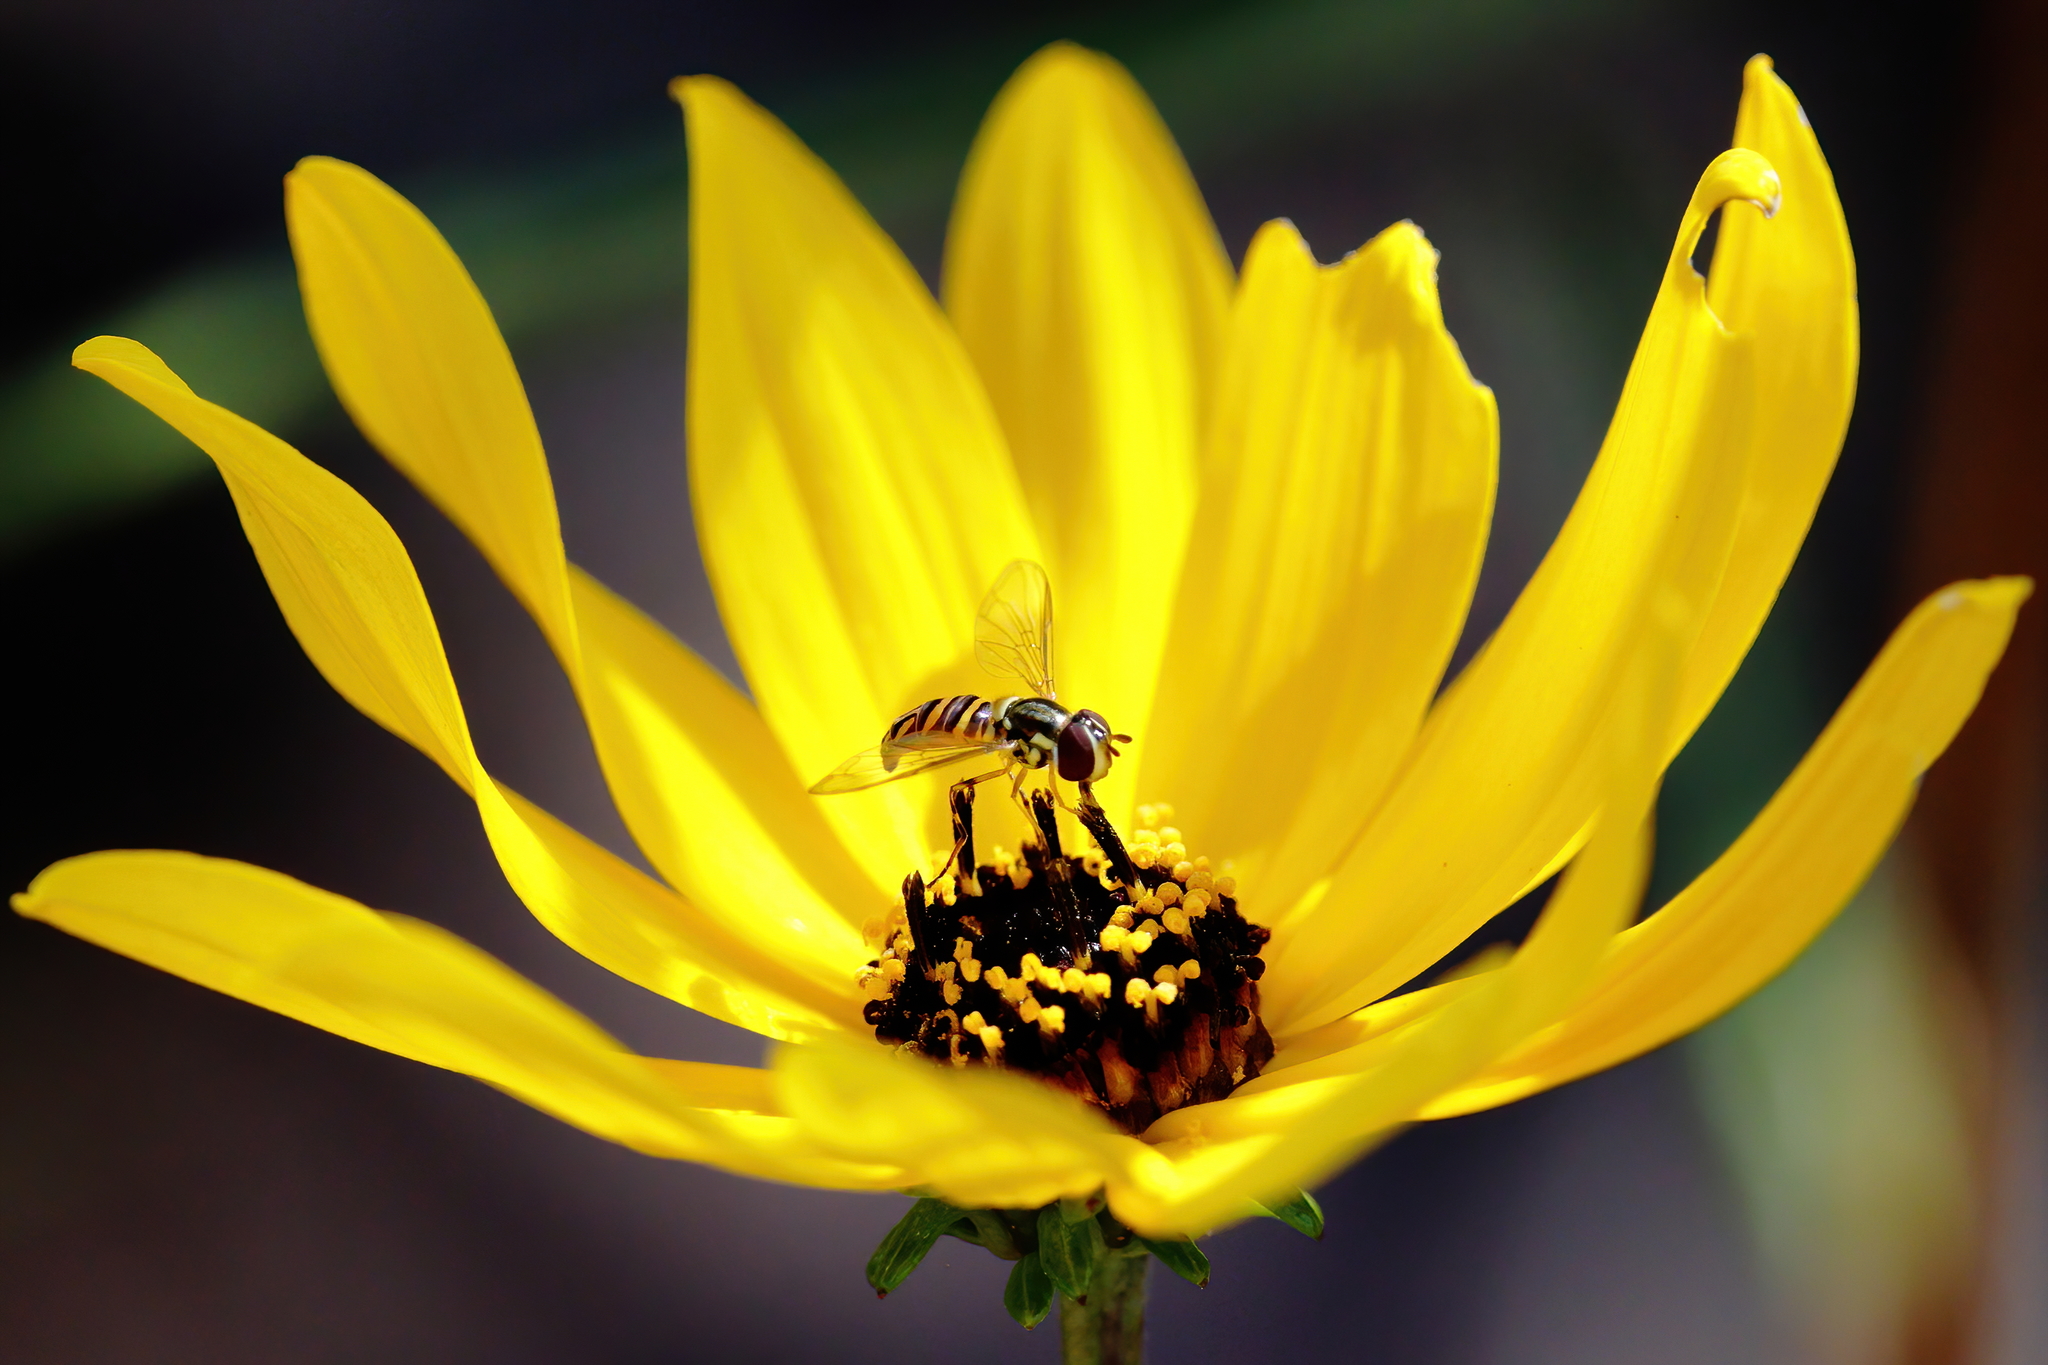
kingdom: Animalia
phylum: Arthropoda
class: Insecta
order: Diptera
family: Syrphidae
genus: Allograpta
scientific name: Allograpta obliqua
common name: Common oblique syrphid
